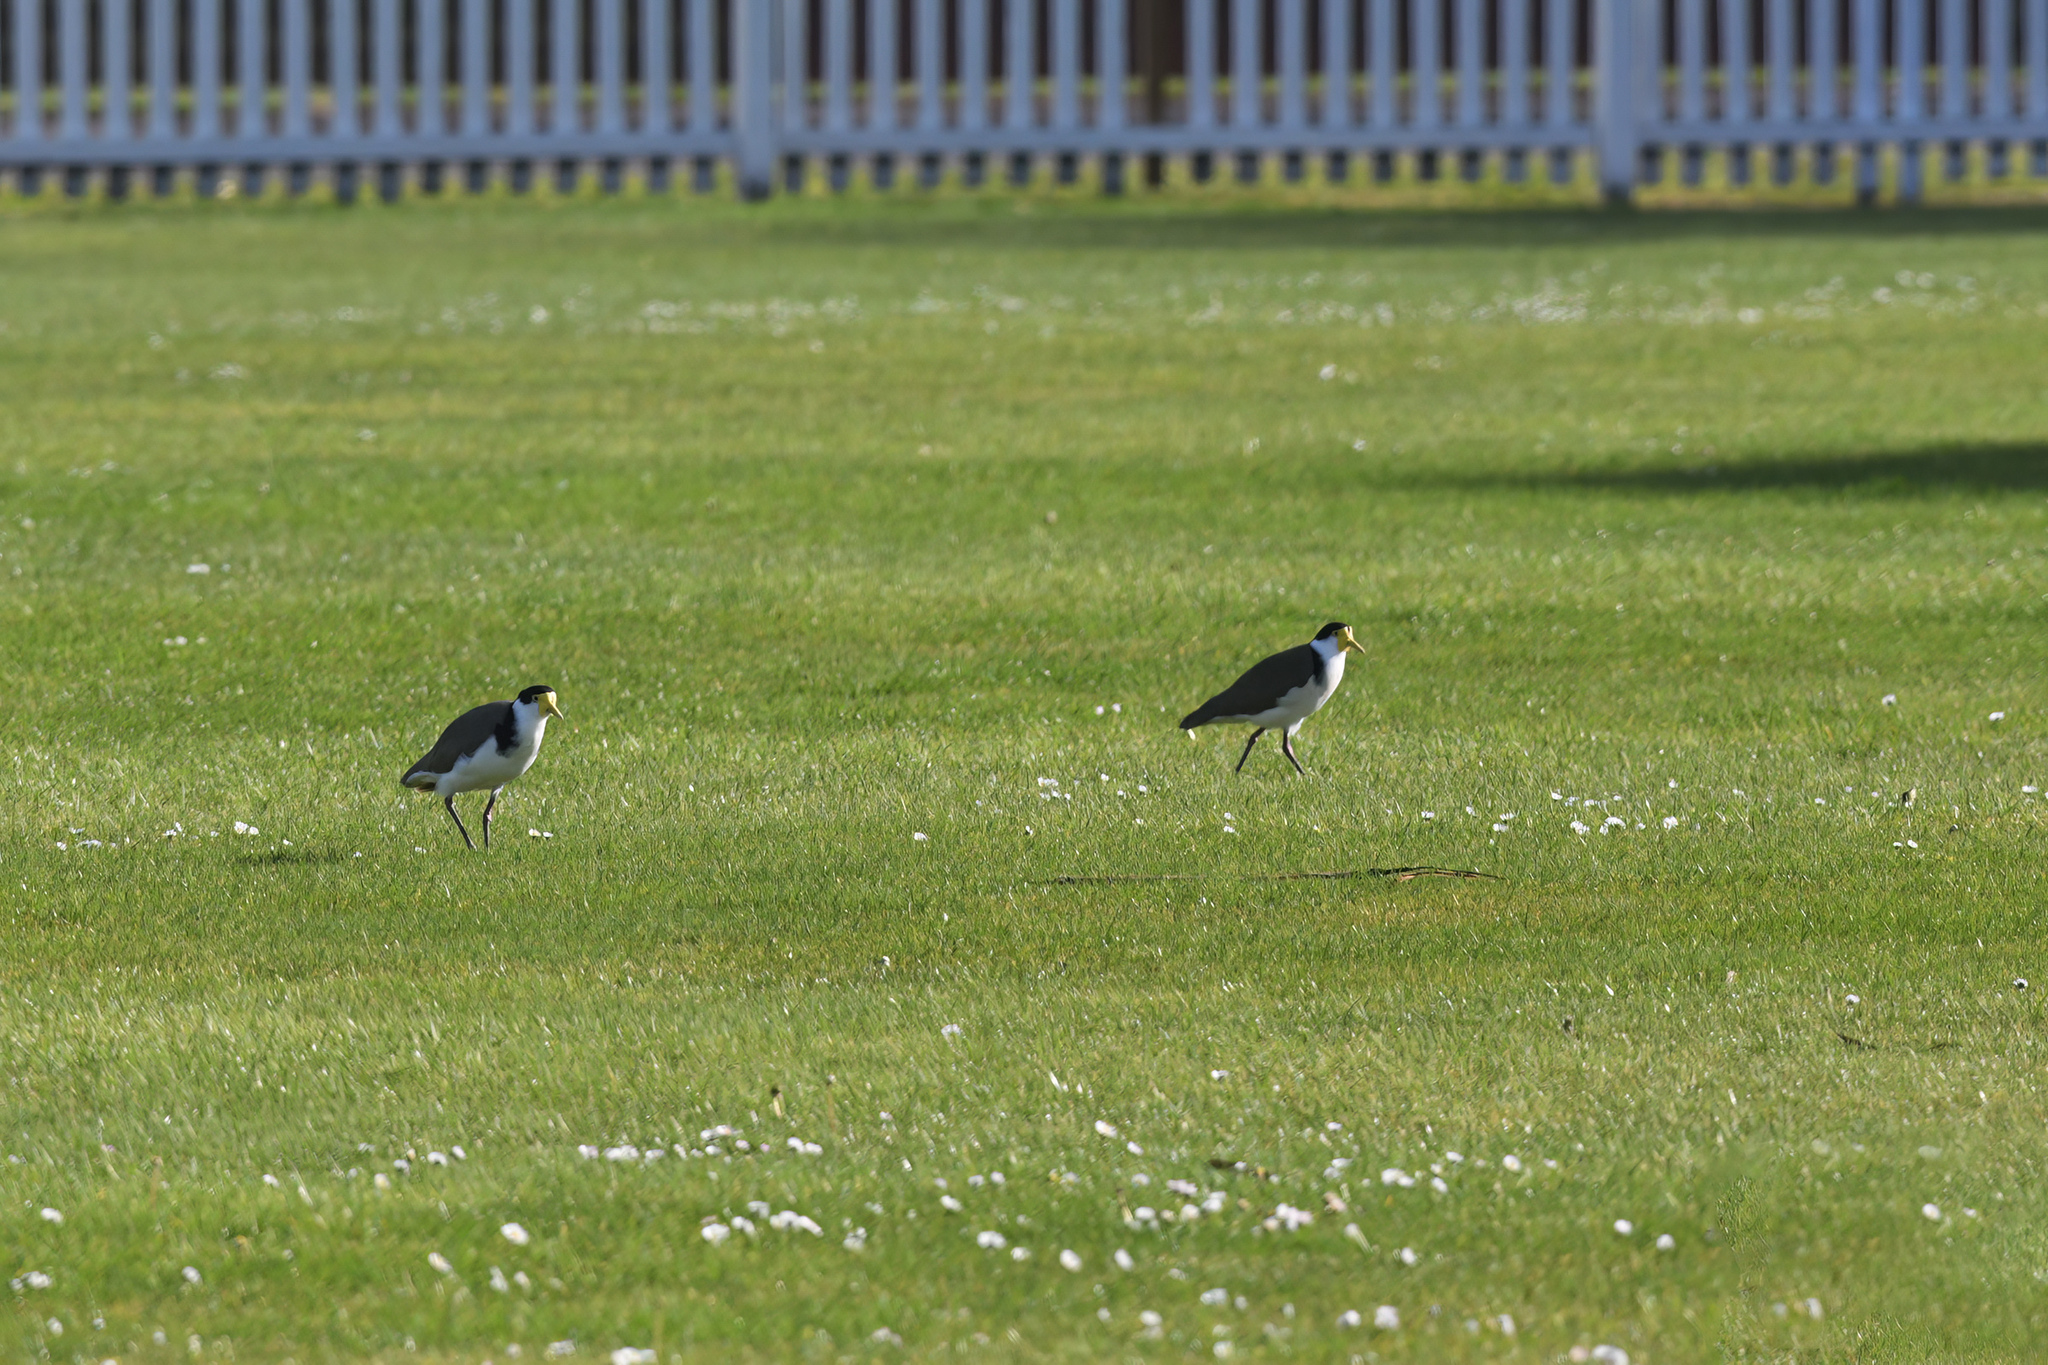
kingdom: Animalia
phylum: Chordata
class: Aves
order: Charadriiformes
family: Charadriidae
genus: Vanellus
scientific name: Vanellus miles
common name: Masked lapwing
